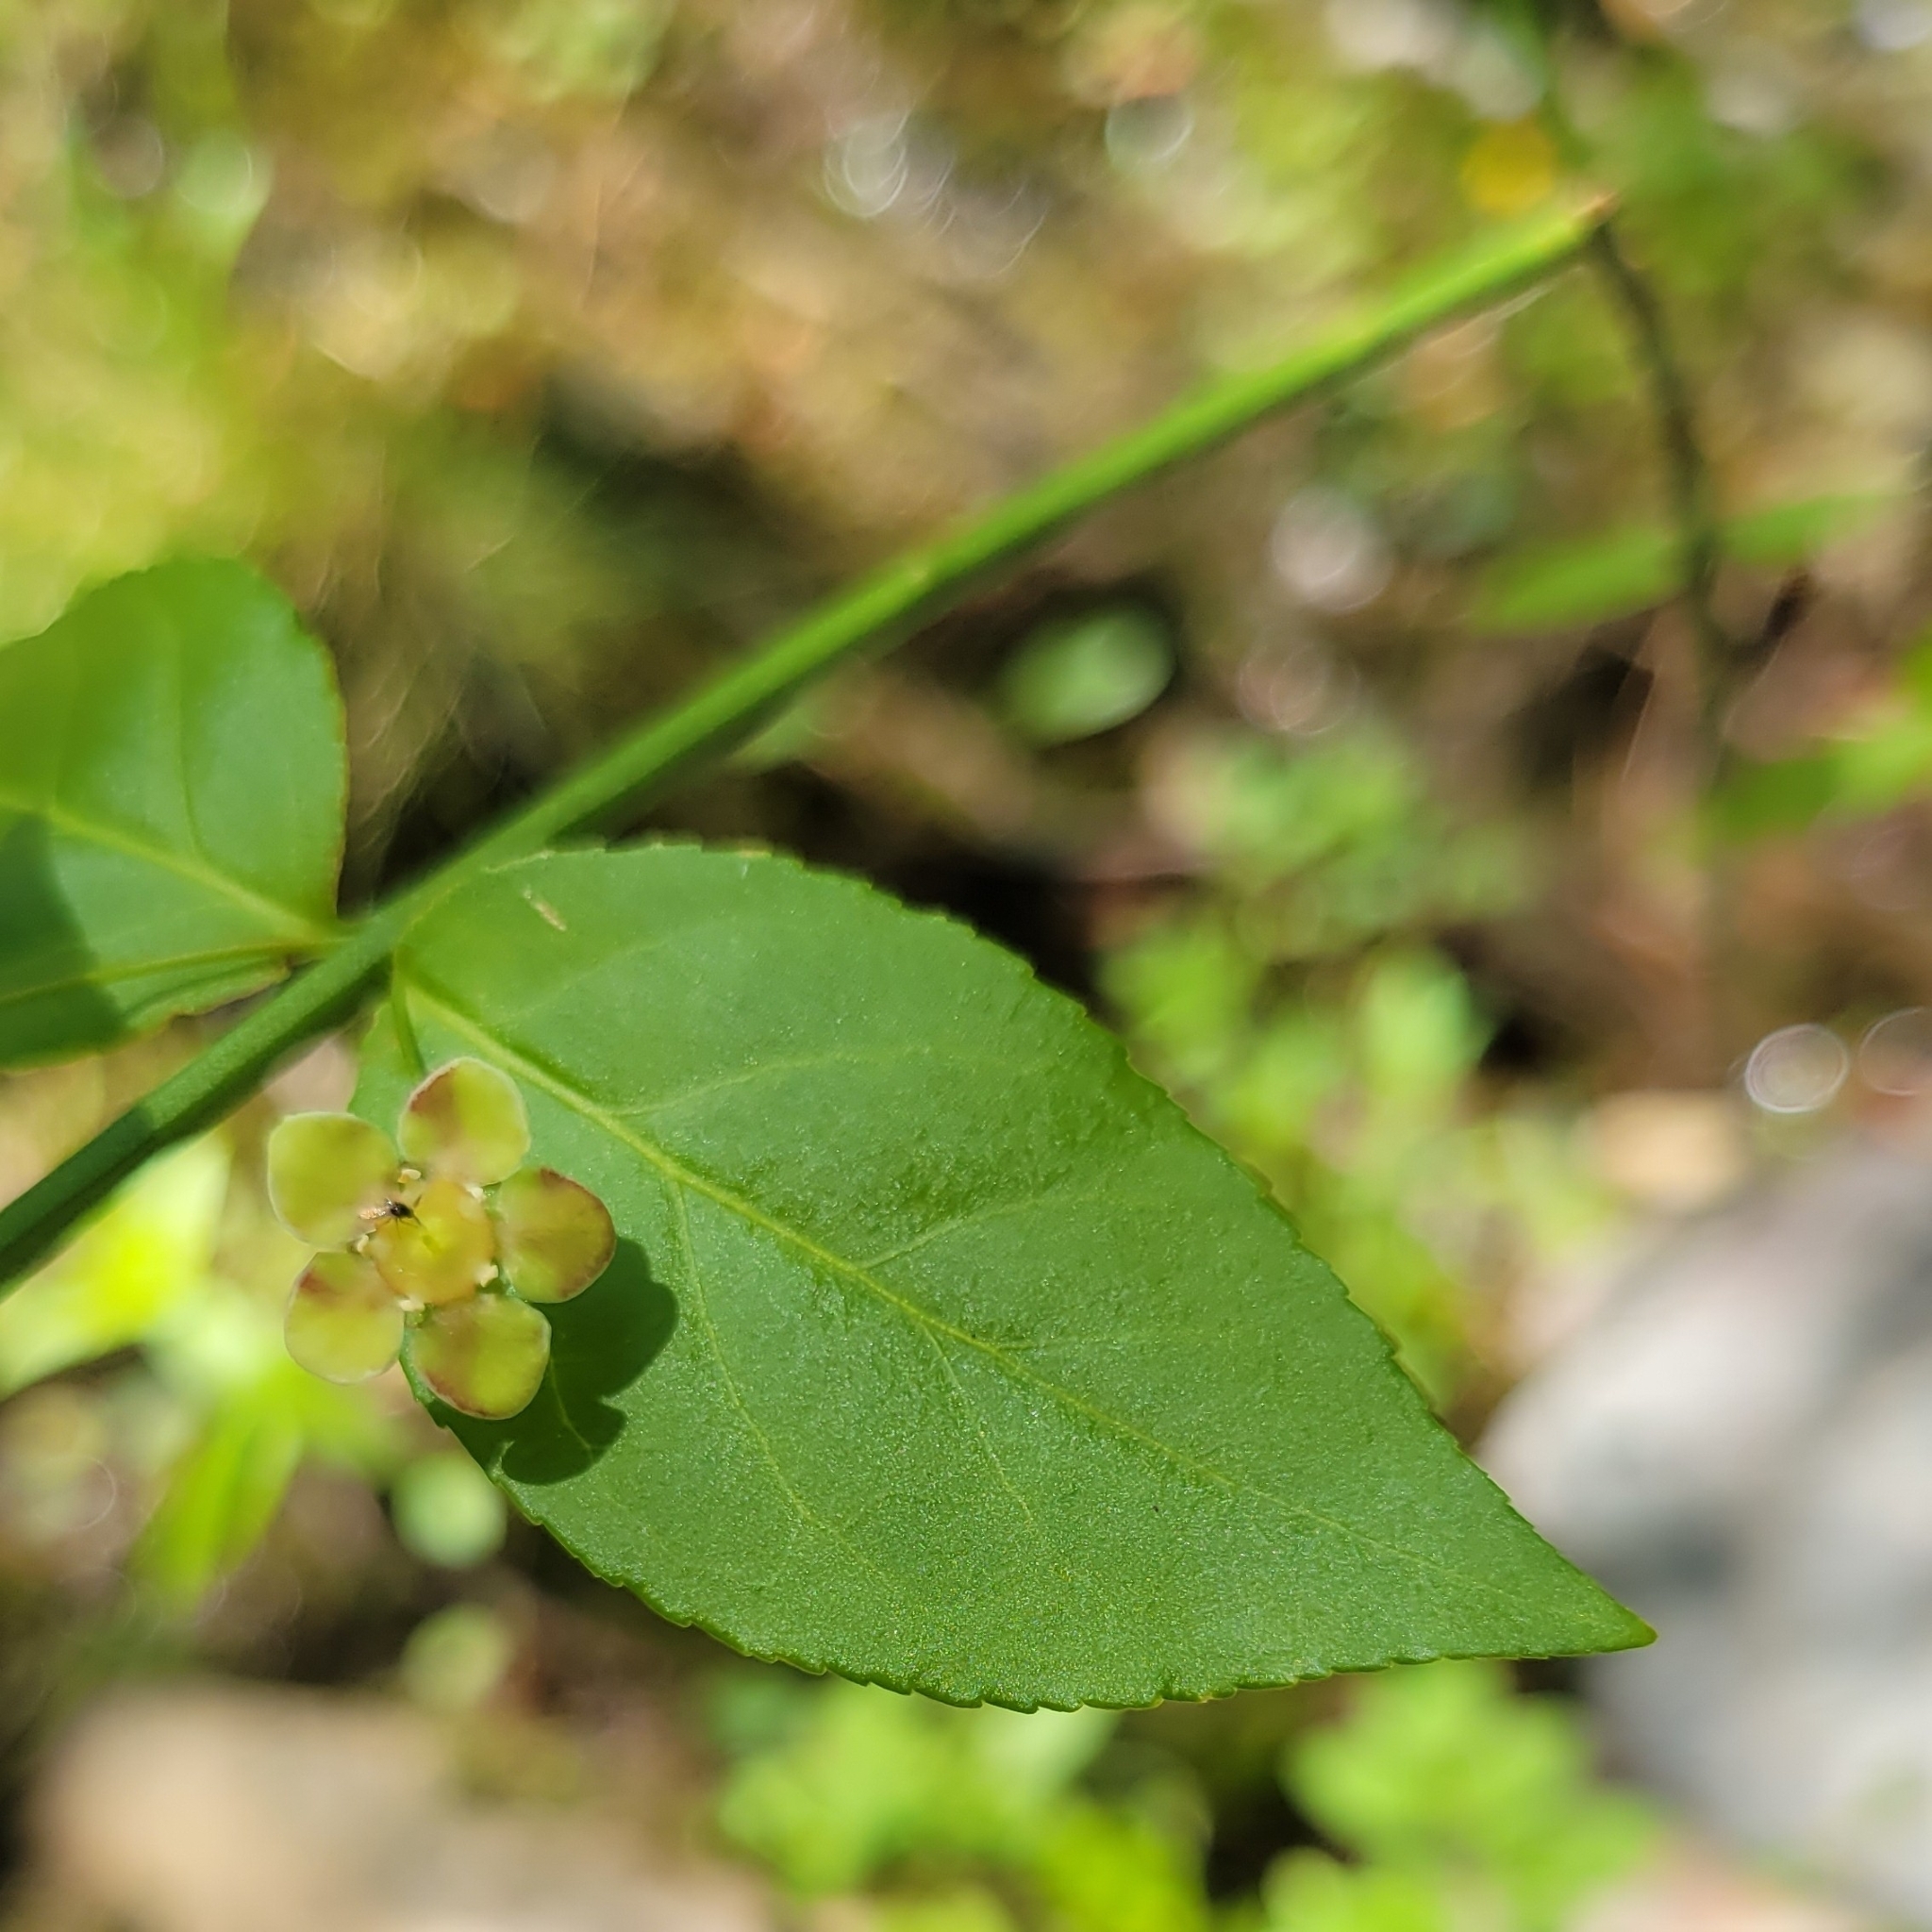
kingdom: Plantae
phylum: Tracheophyta
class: Magnoliopsida
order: Celastrales
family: Celastraceae
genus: Euonymus
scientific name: Euonymus americanus
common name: Bursting-heart
